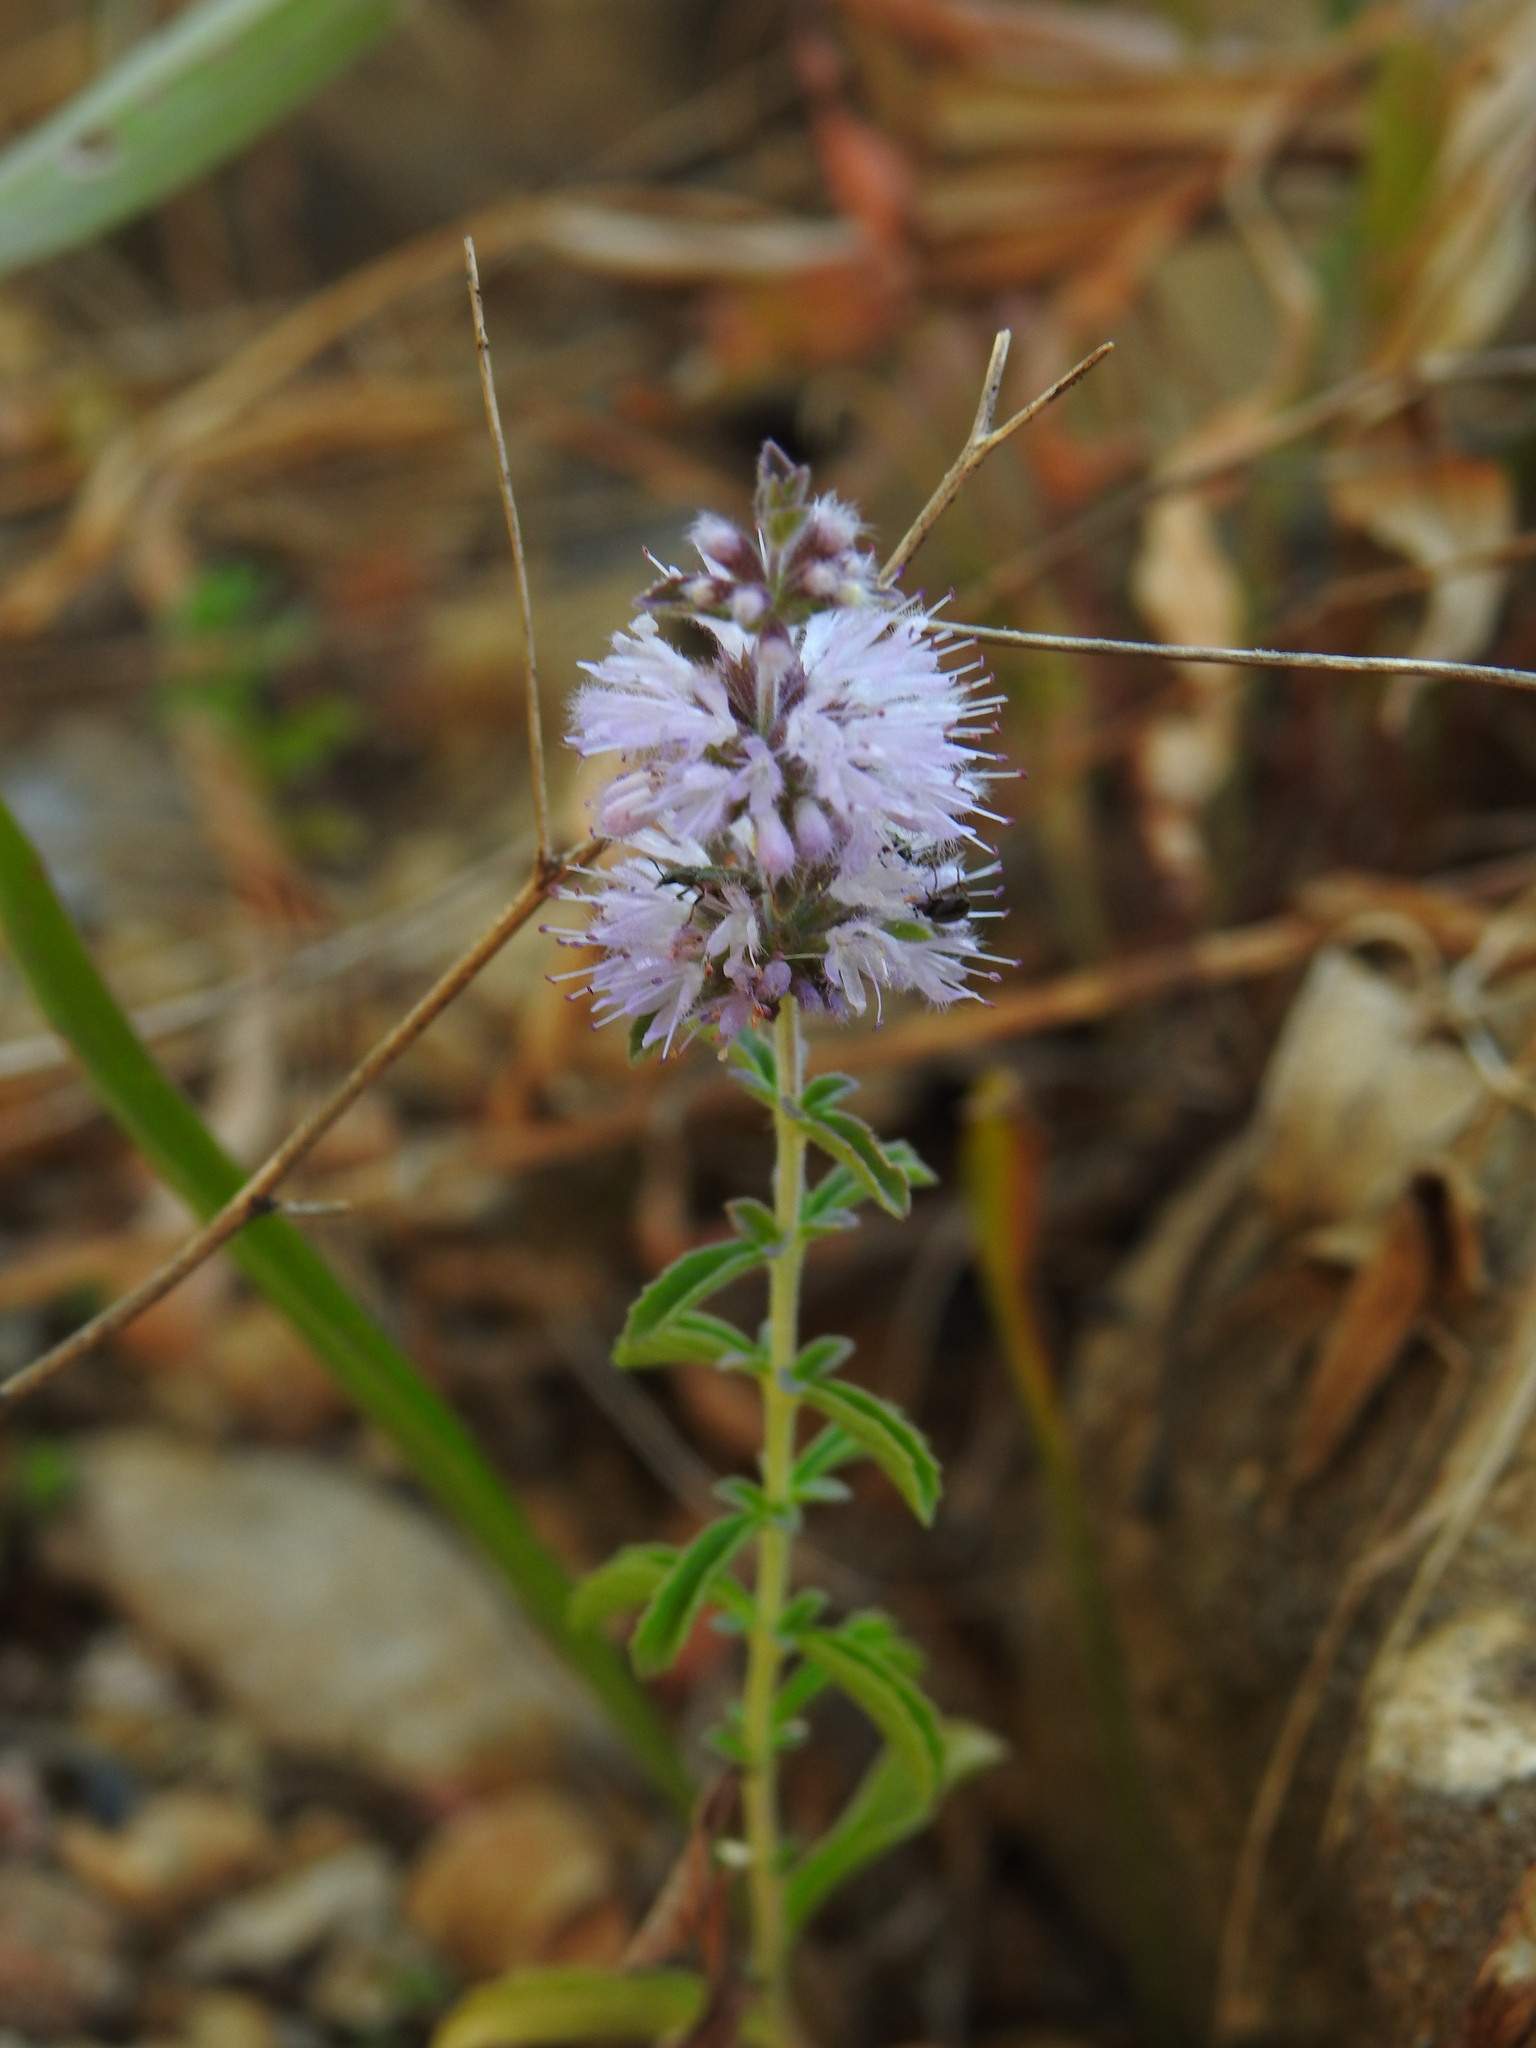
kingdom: Plantae
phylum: Tracheophyta
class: Magnoliopsida
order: Lamiales
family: Lamiaceae
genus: Mentha
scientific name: Mentha pulegium
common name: Pennyroyal
